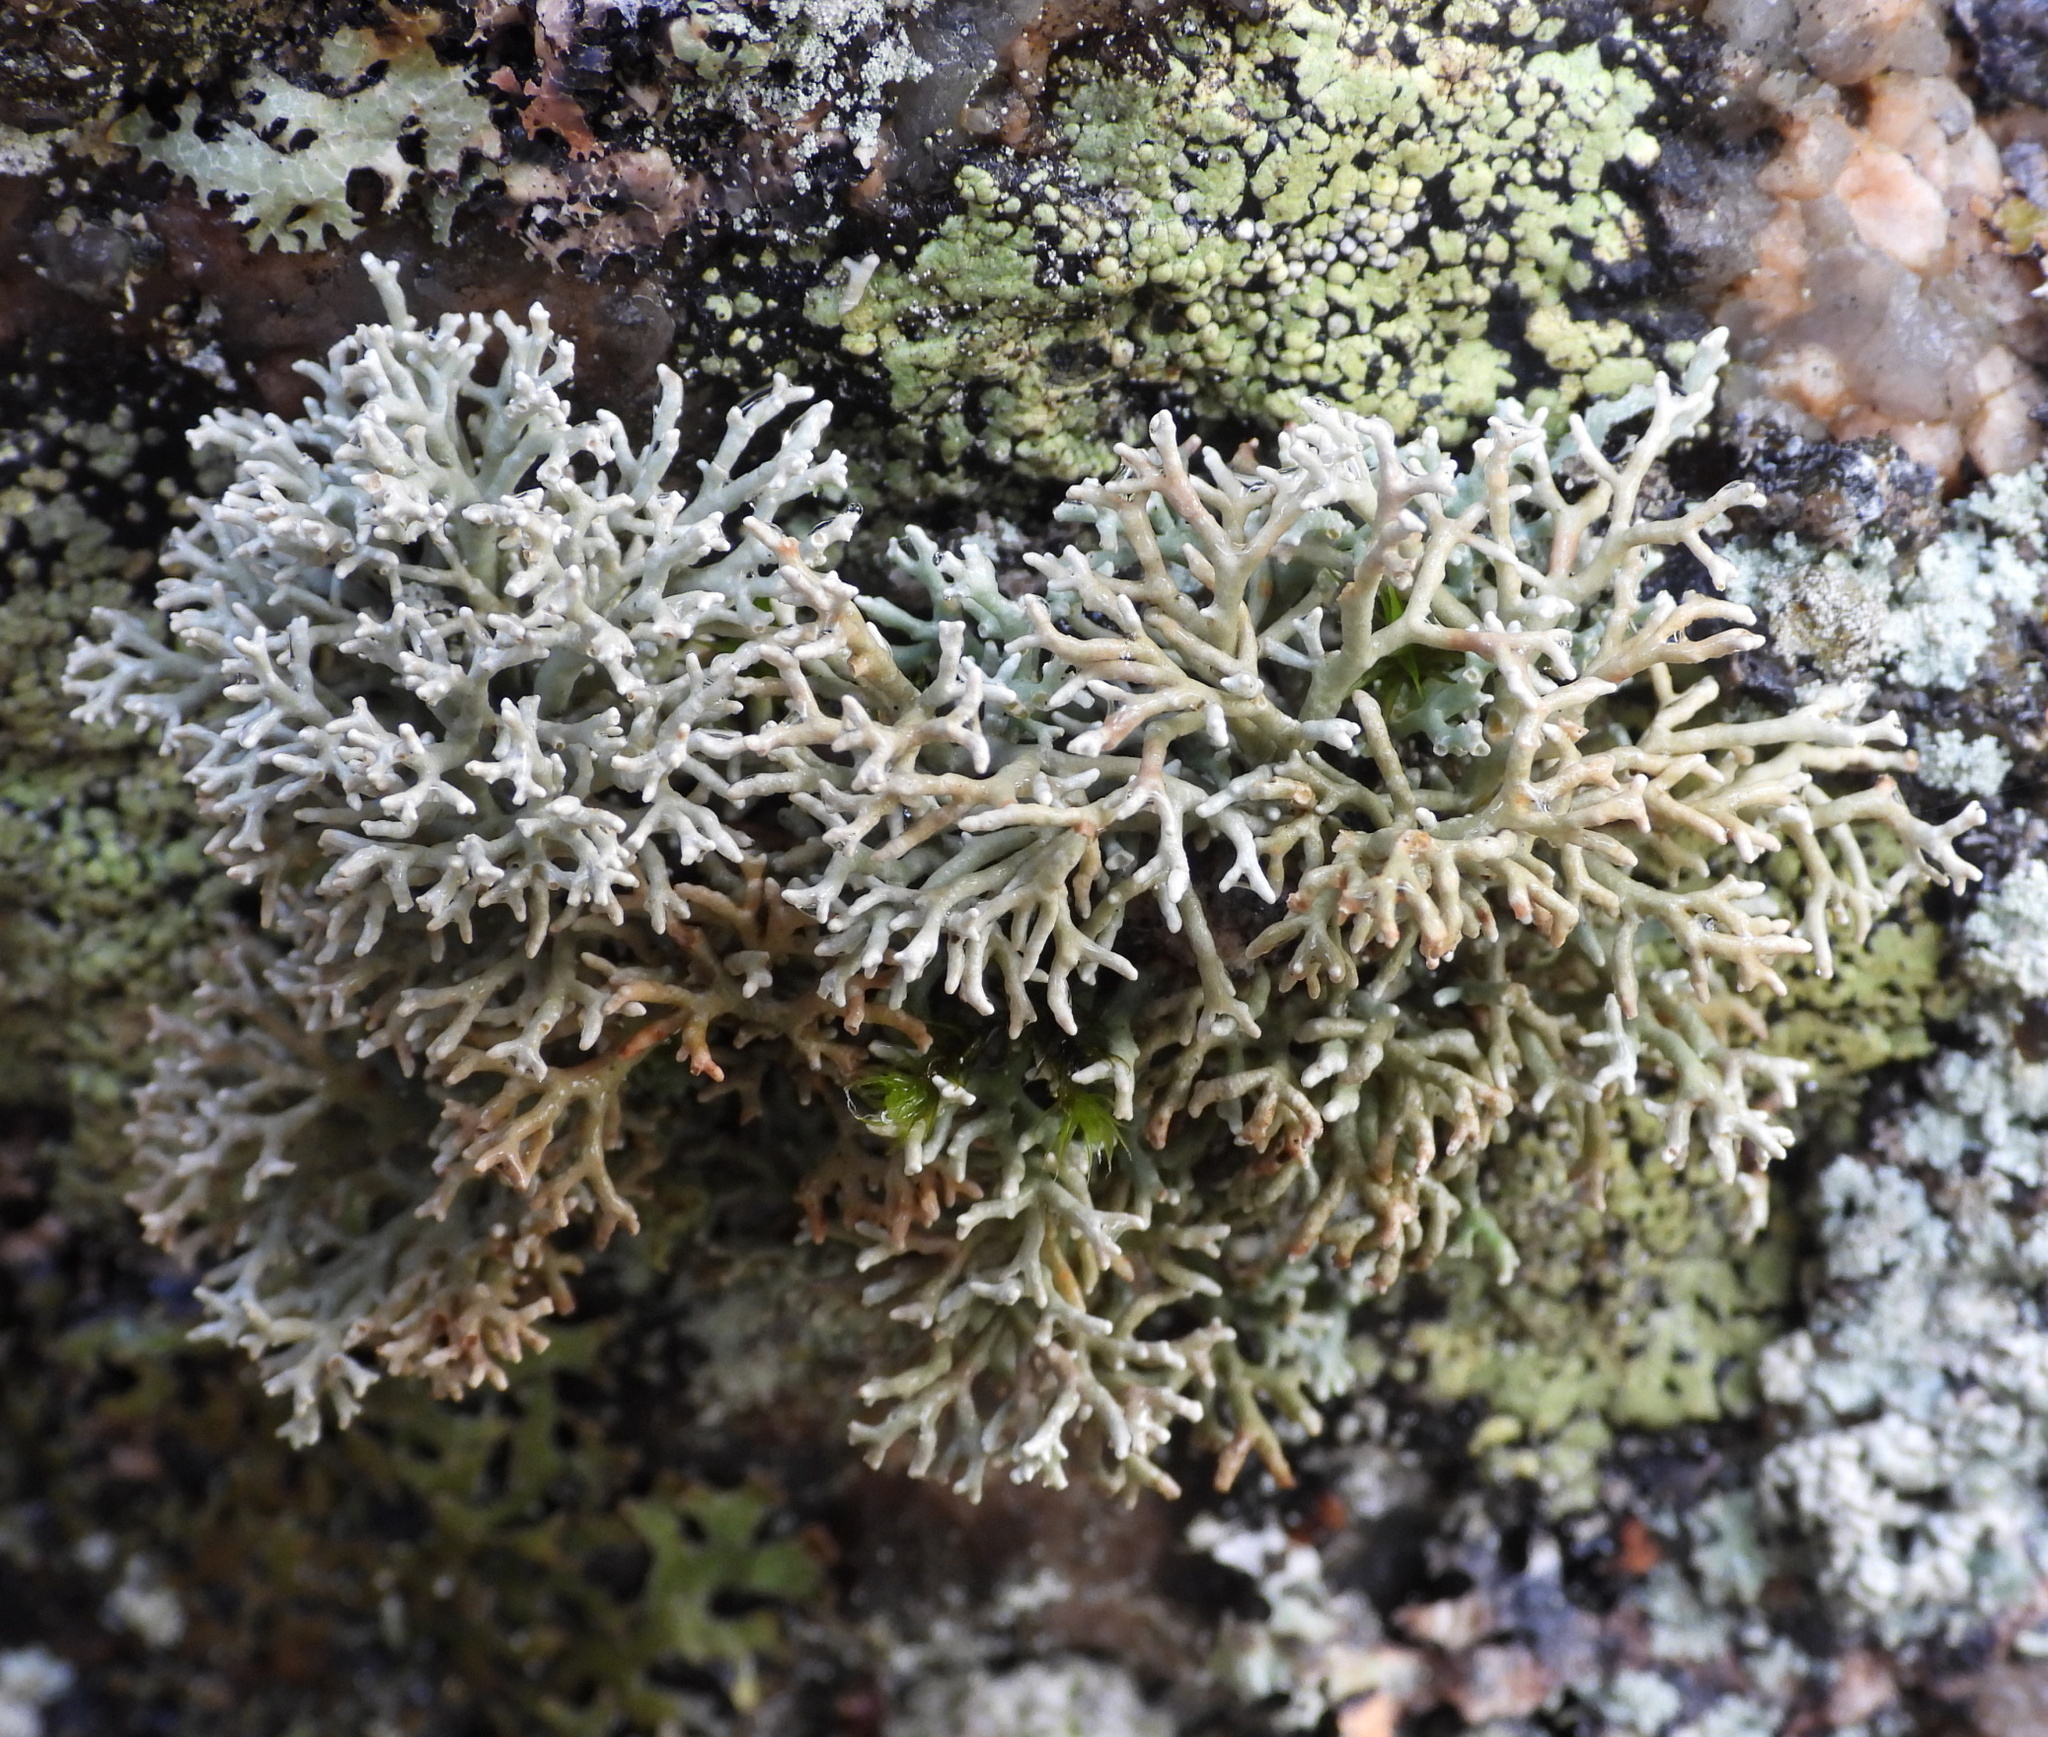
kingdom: Fungi
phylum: Ascomycota
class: Lecanoromycetes
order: Lecanorales
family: Sphaerophoraceae
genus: Sphaerophorus
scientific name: Sphaerophorus fragilis
